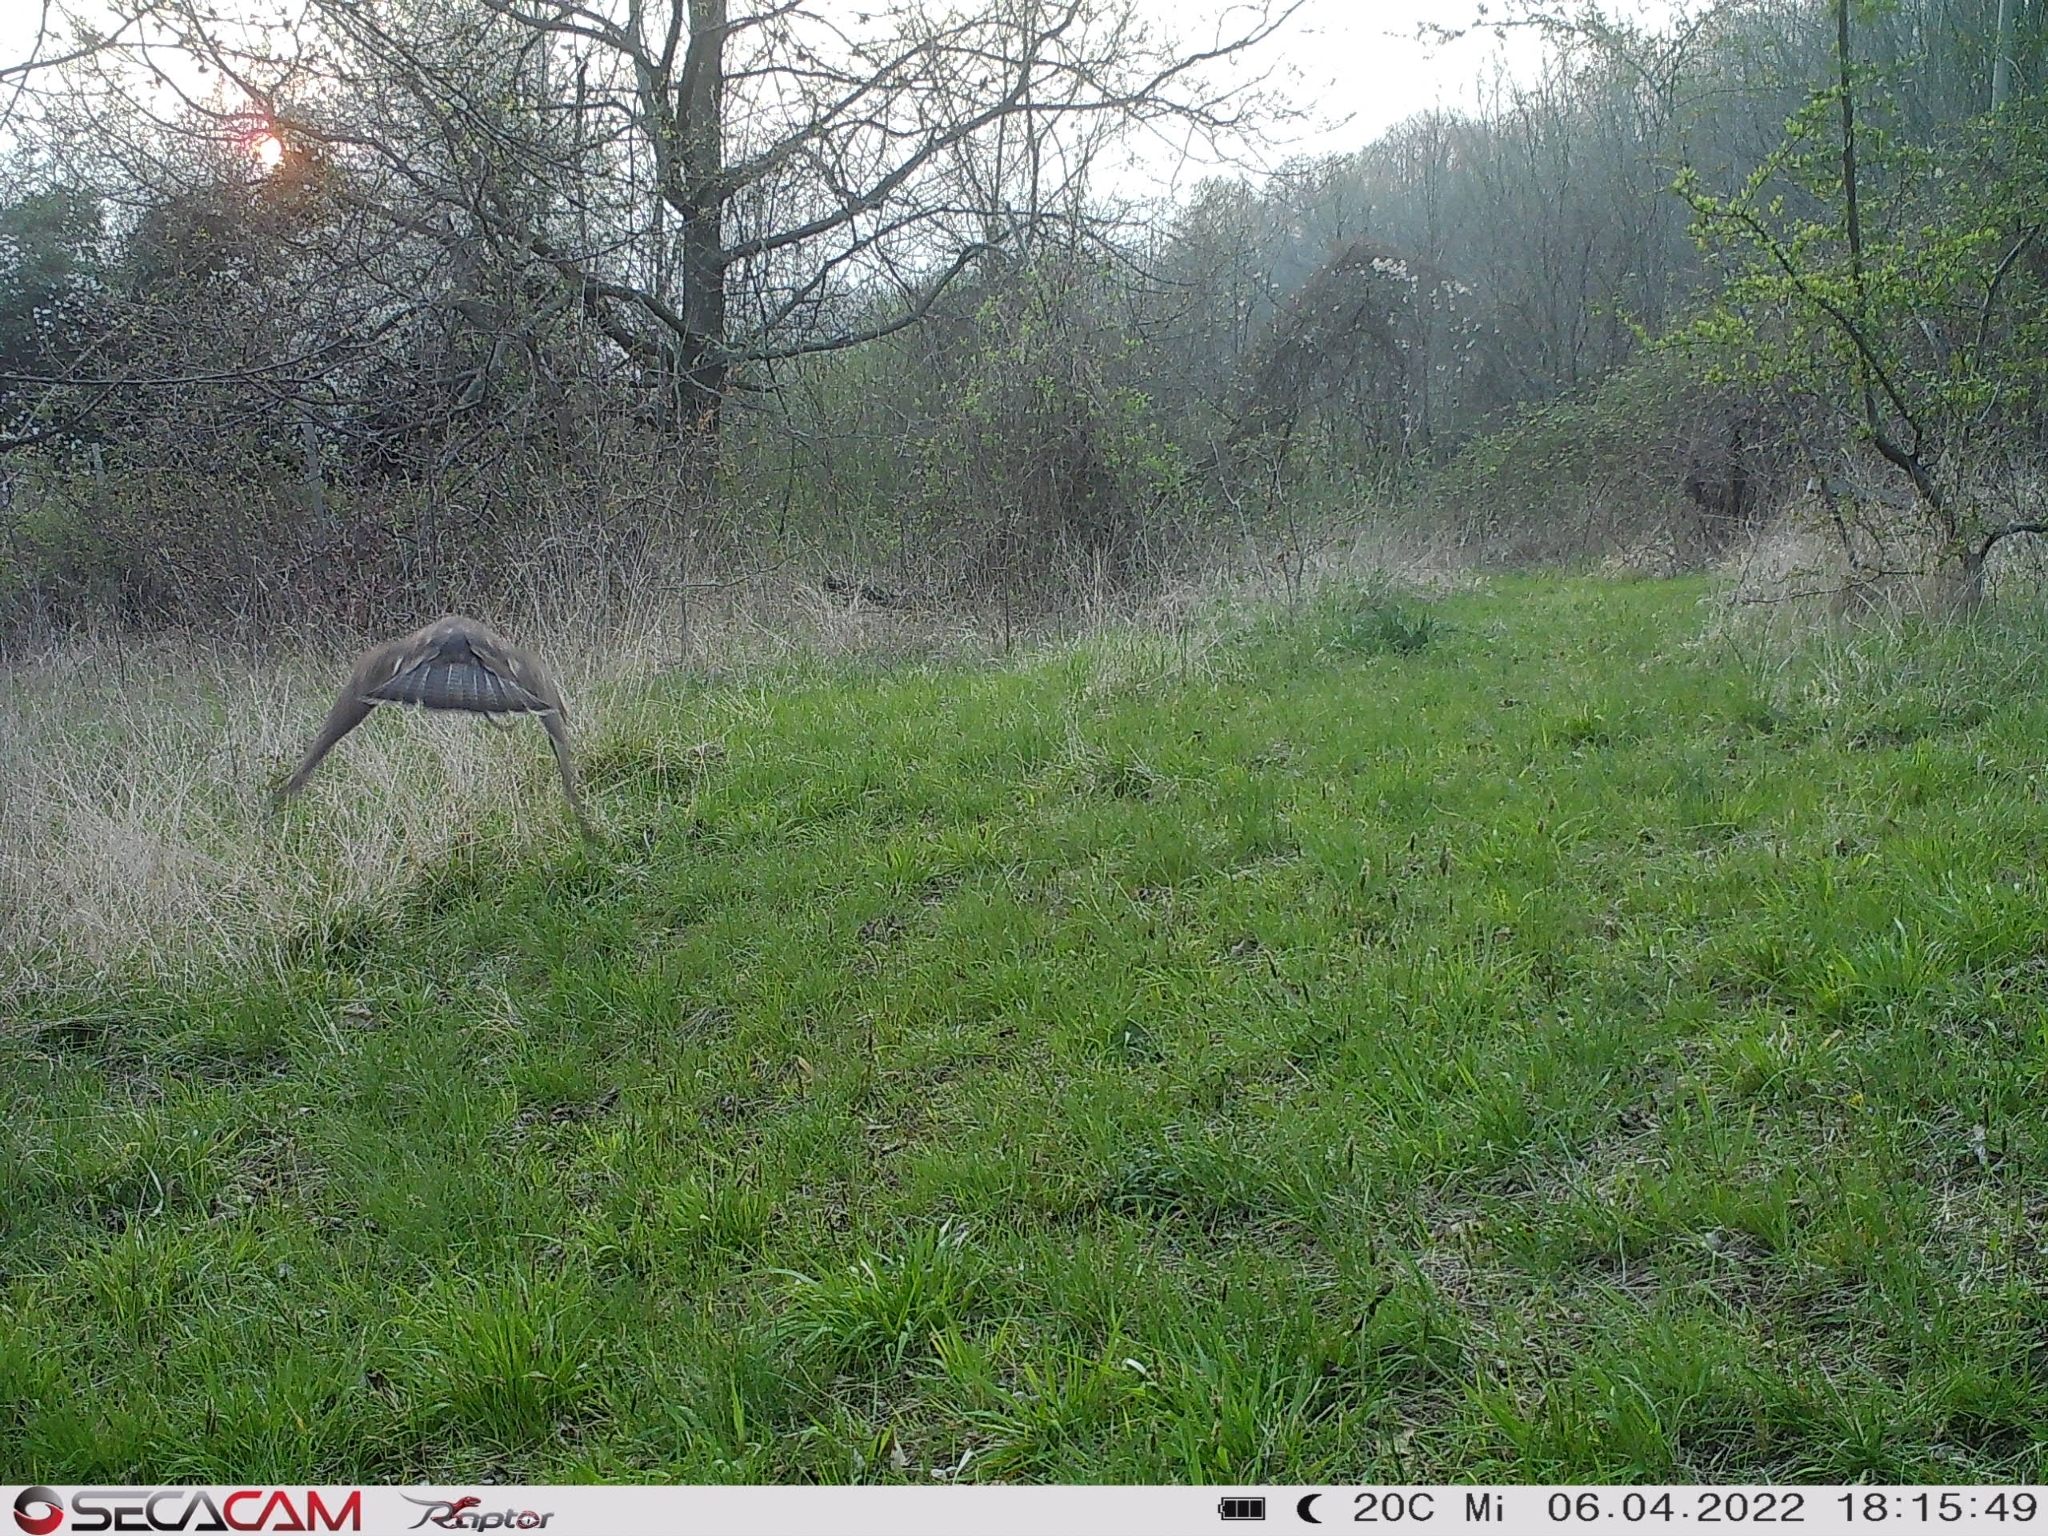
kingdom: Animalia
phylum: Chordata
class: Aves
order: Accipitriformes
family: Accipitridae
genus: Buteo
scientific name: Buteo buteo
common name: Common buzzard
